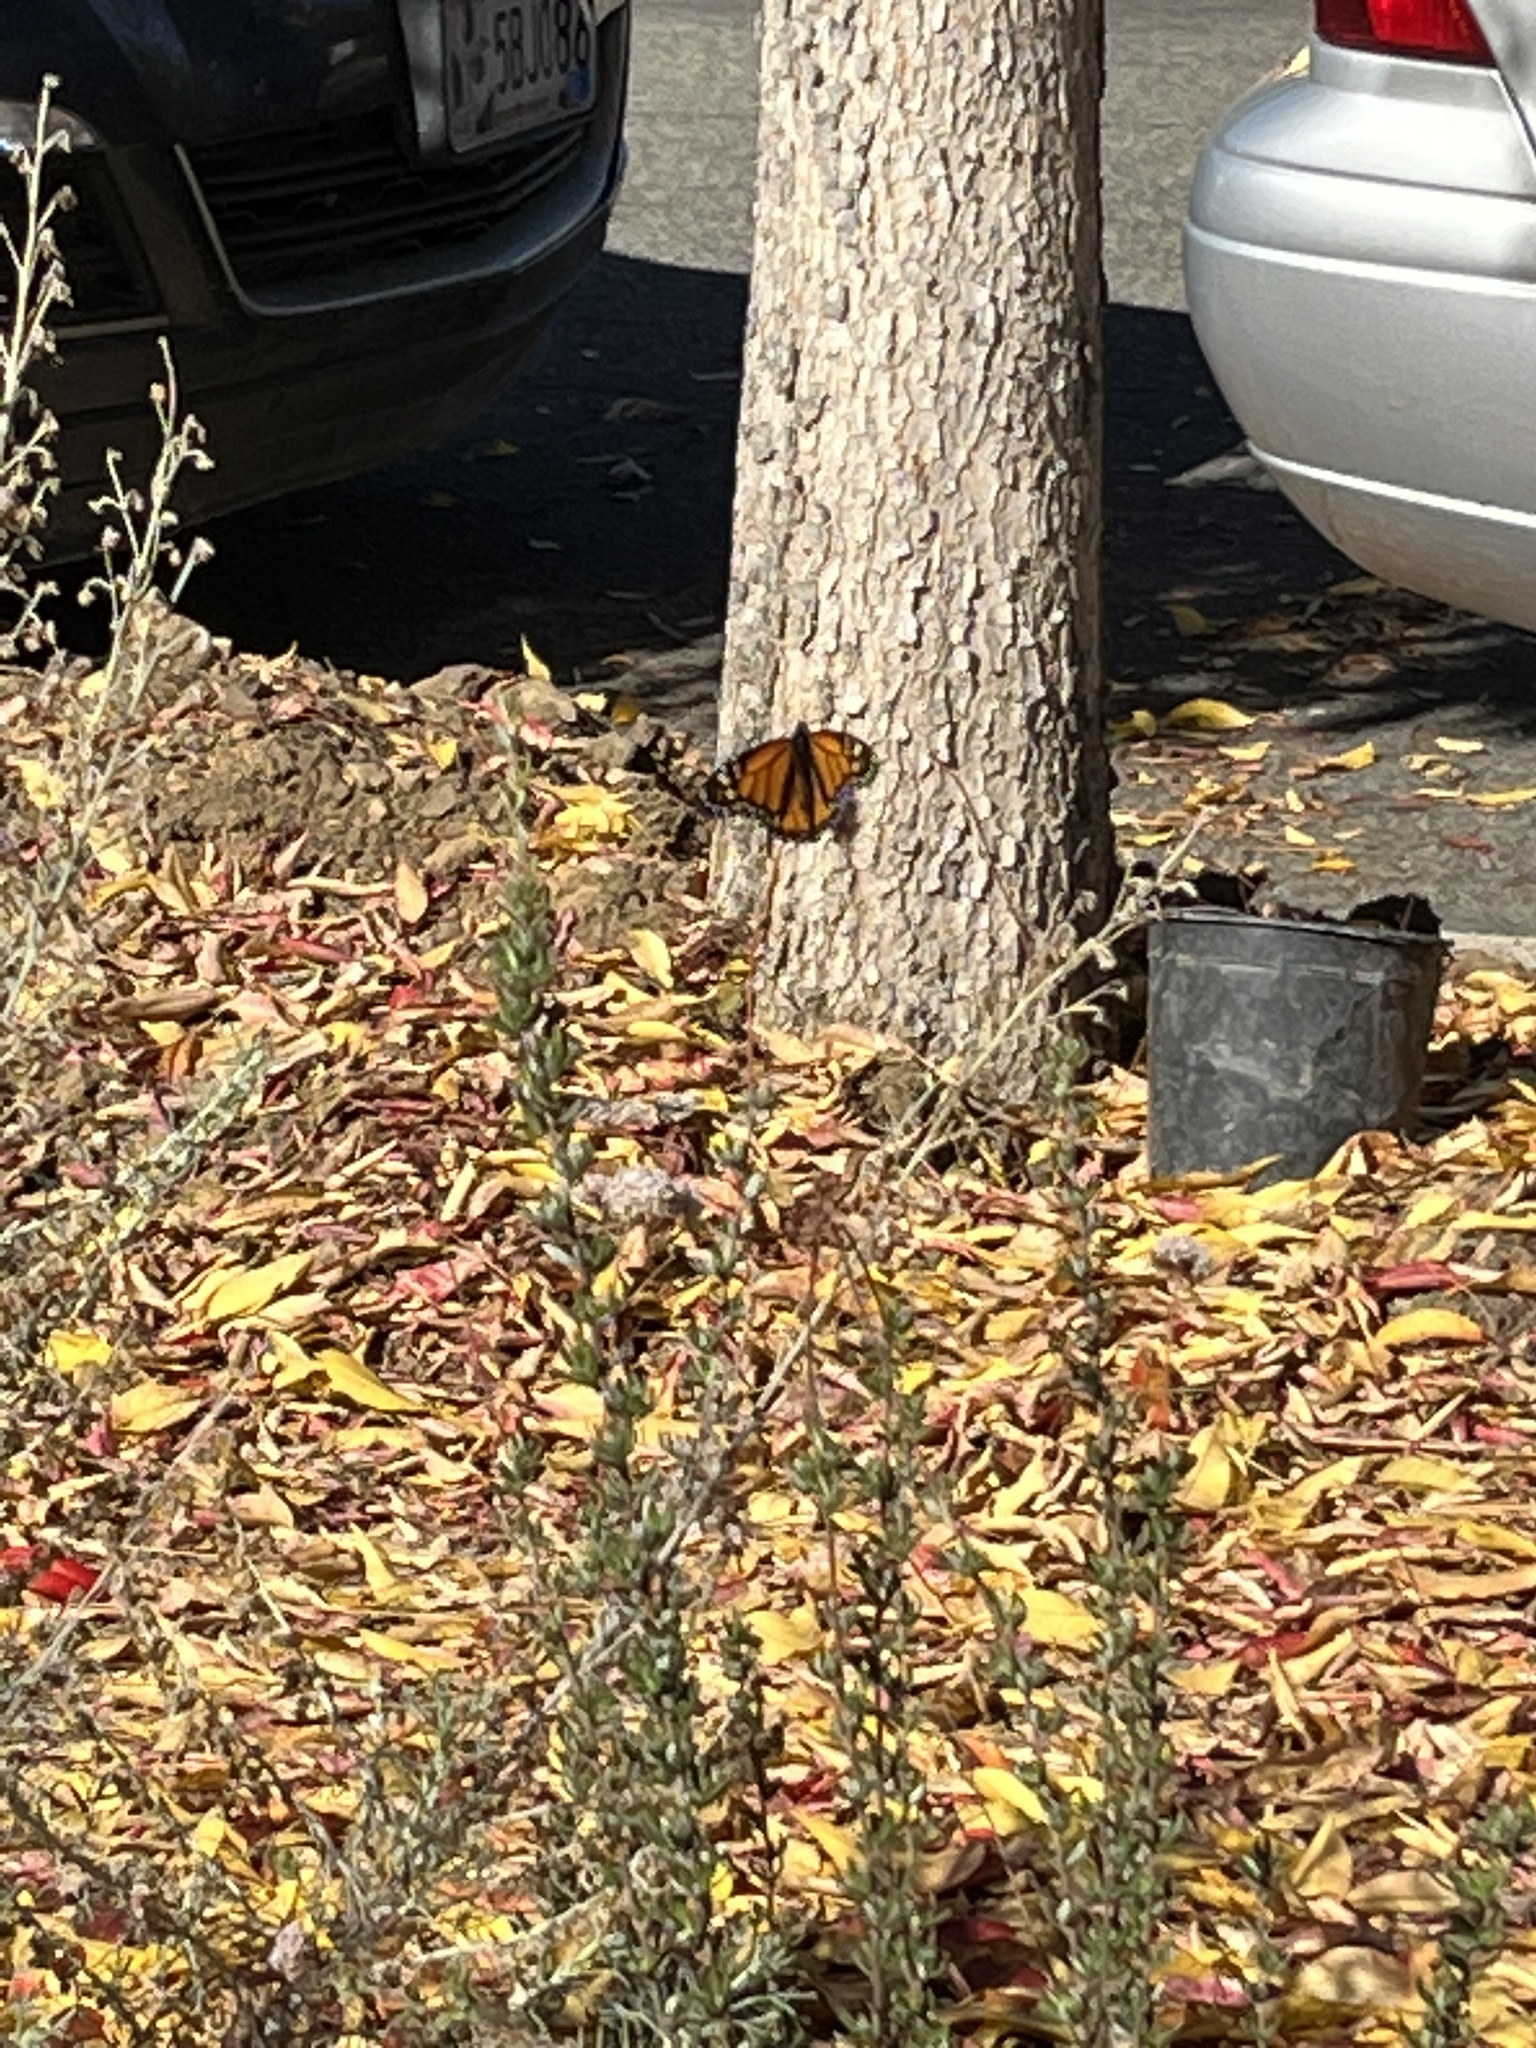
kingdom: Animalia
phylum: Arthropoda
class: Insecta
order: Lepidoptera
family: Nymphalidae
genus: Danaus
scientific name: Danaus plexippus
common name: Monarch
